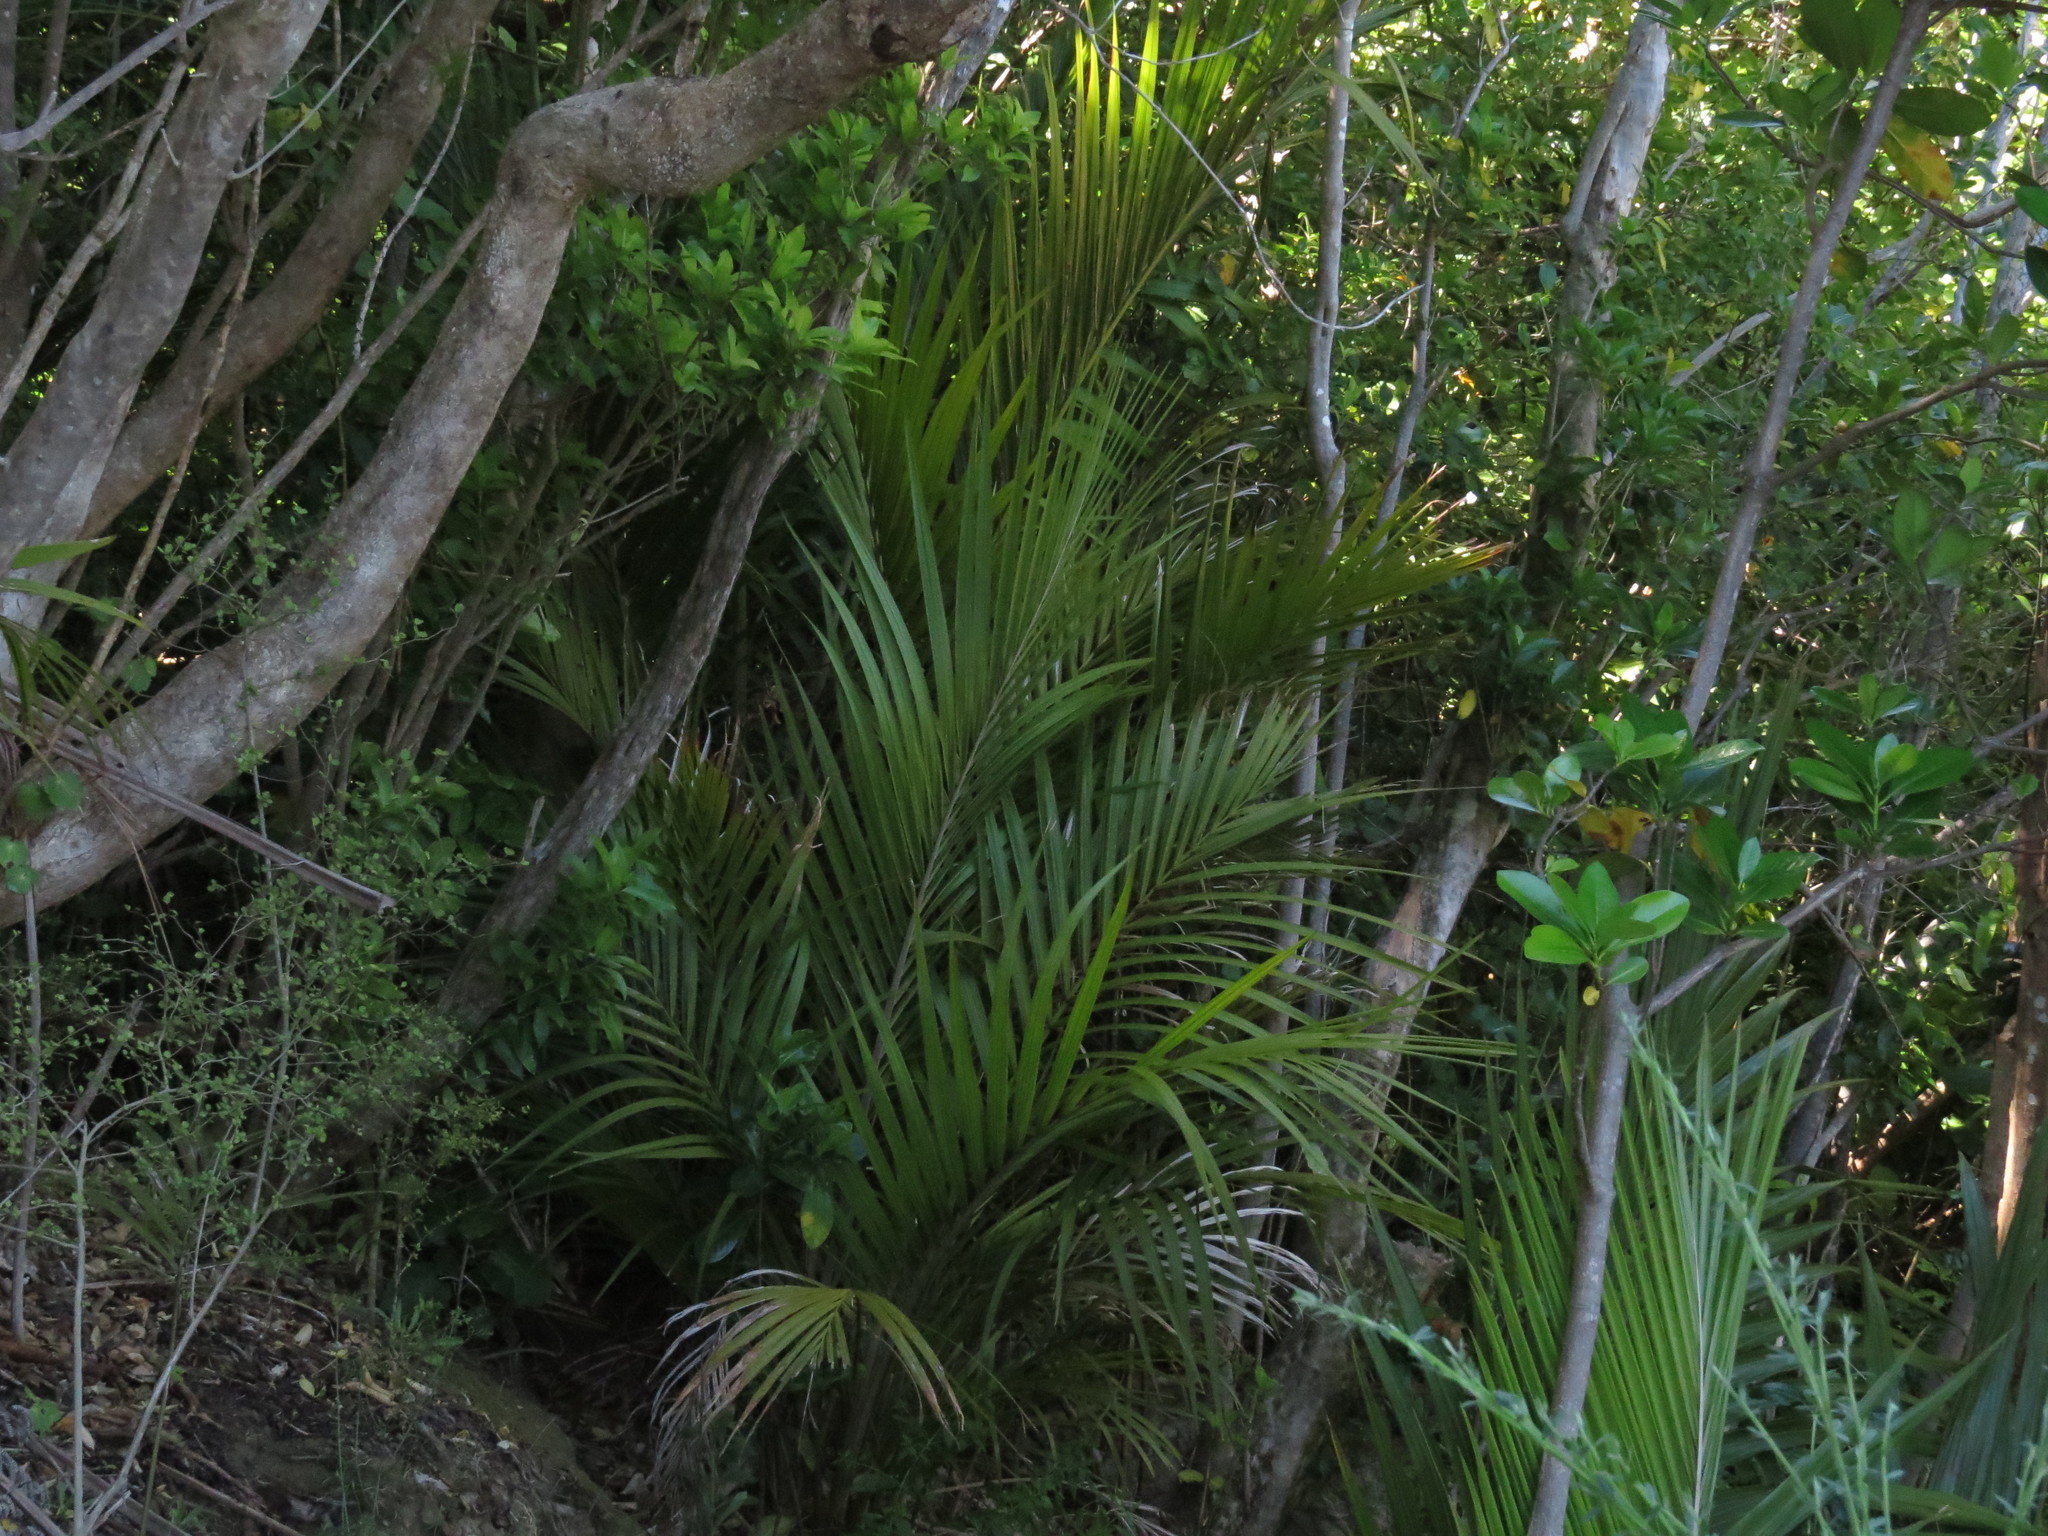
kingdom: Plantae
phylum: Tracheophyta
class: Liliopsida
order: Arecales
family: Arecaceae
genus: Rhopalostylis
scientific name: Rhopalostylis sapida
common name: Feather-duster palm
